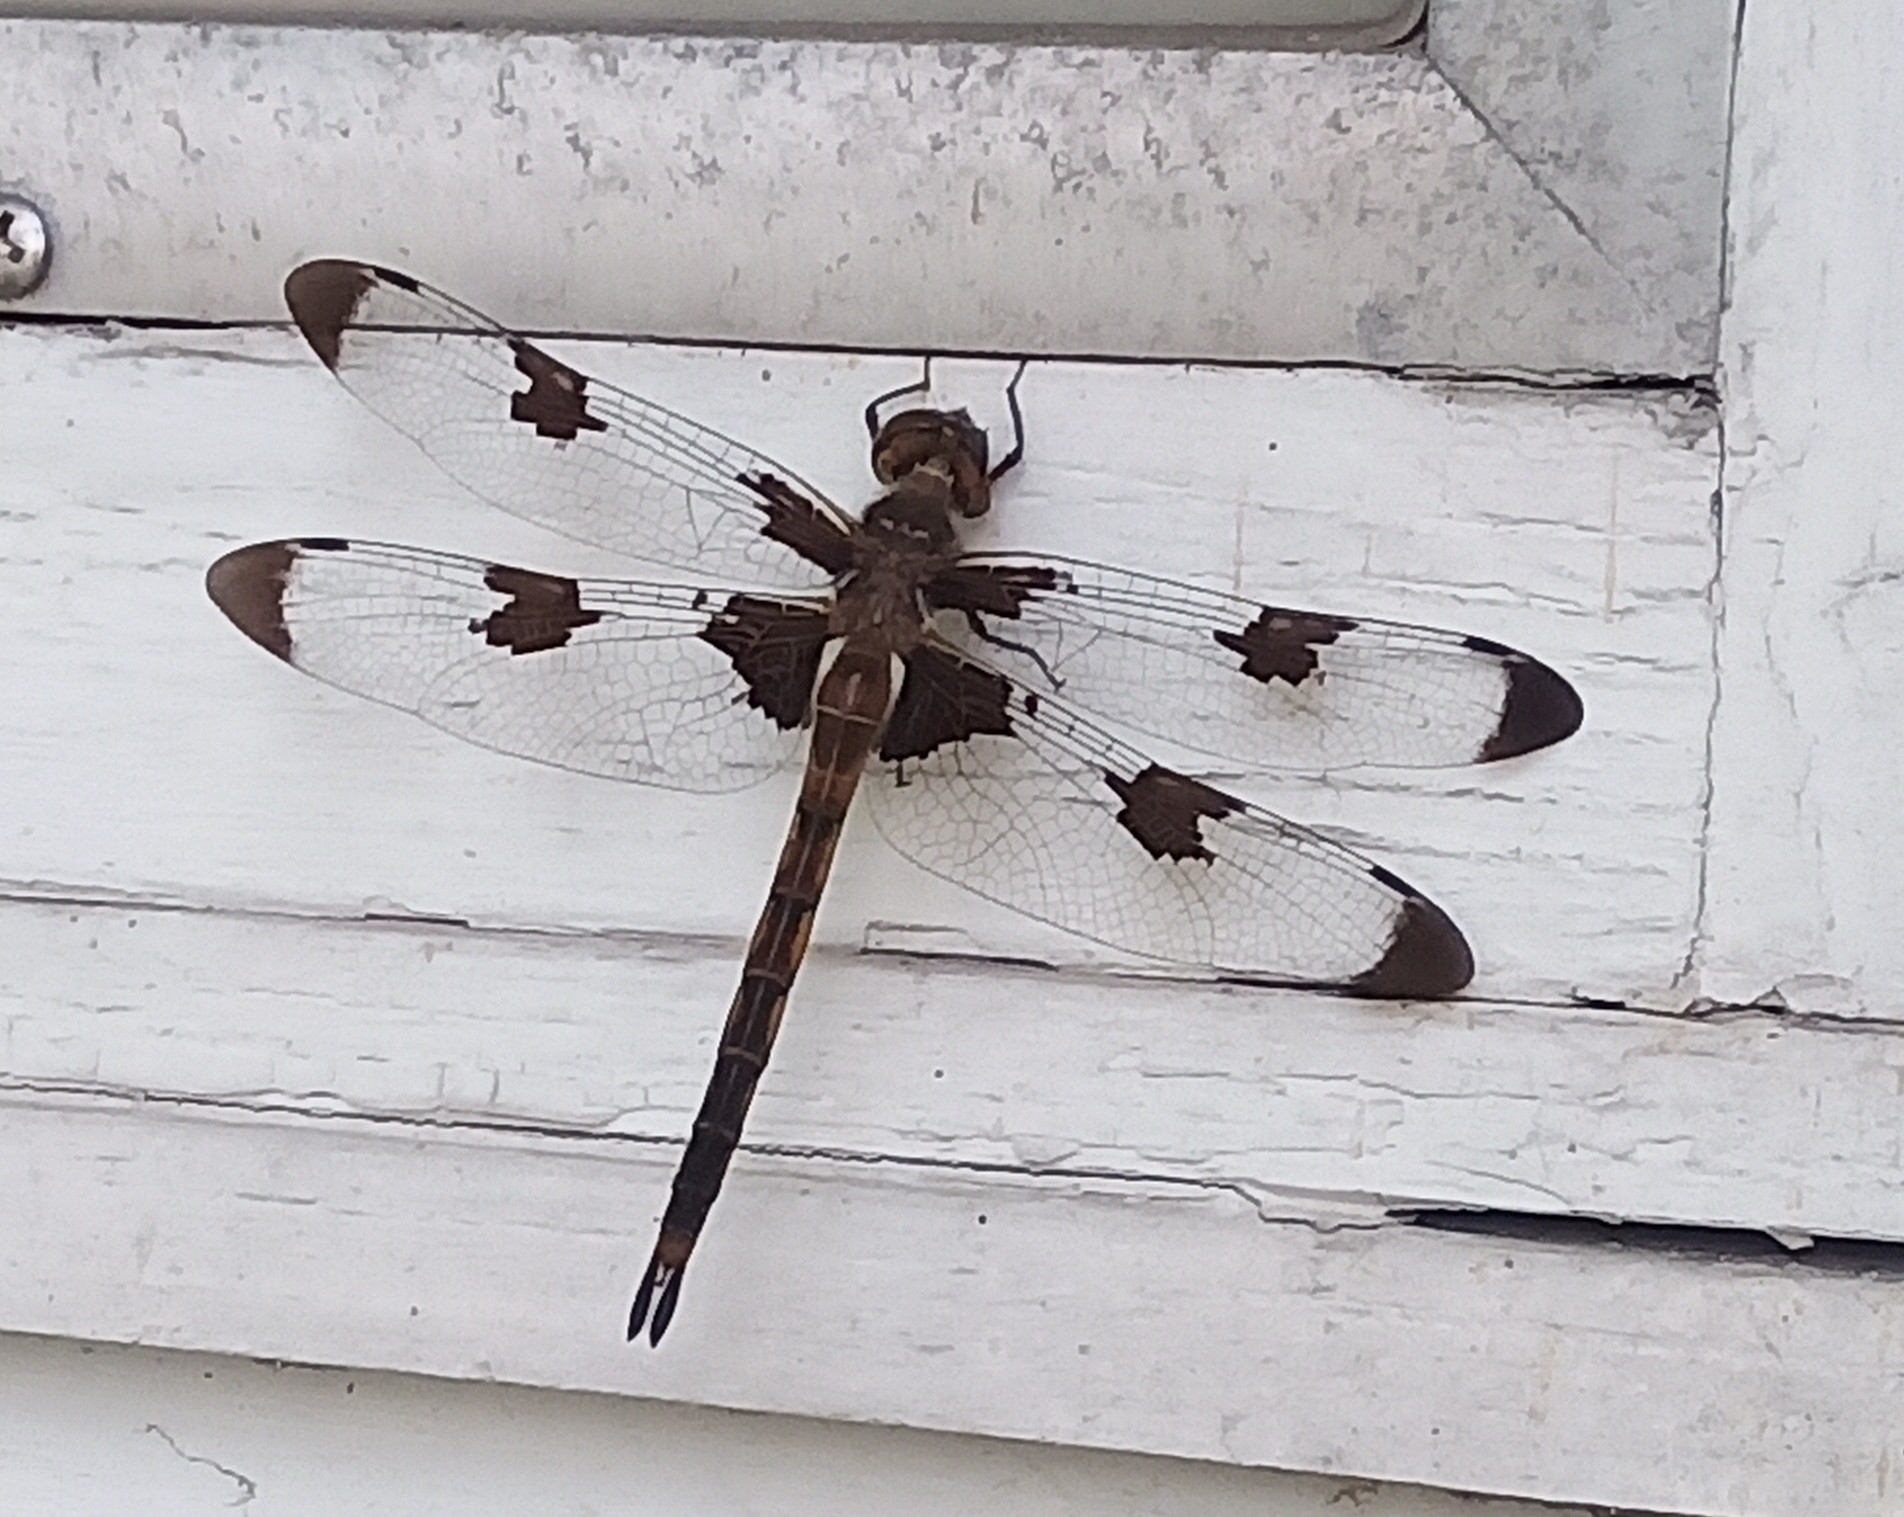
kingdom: Animalia
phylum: Arthropoda
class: Insecta
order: Odonata
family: Corduliidae
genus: Epitheca
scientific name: Epitheca princeps
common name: Prince baskettail
